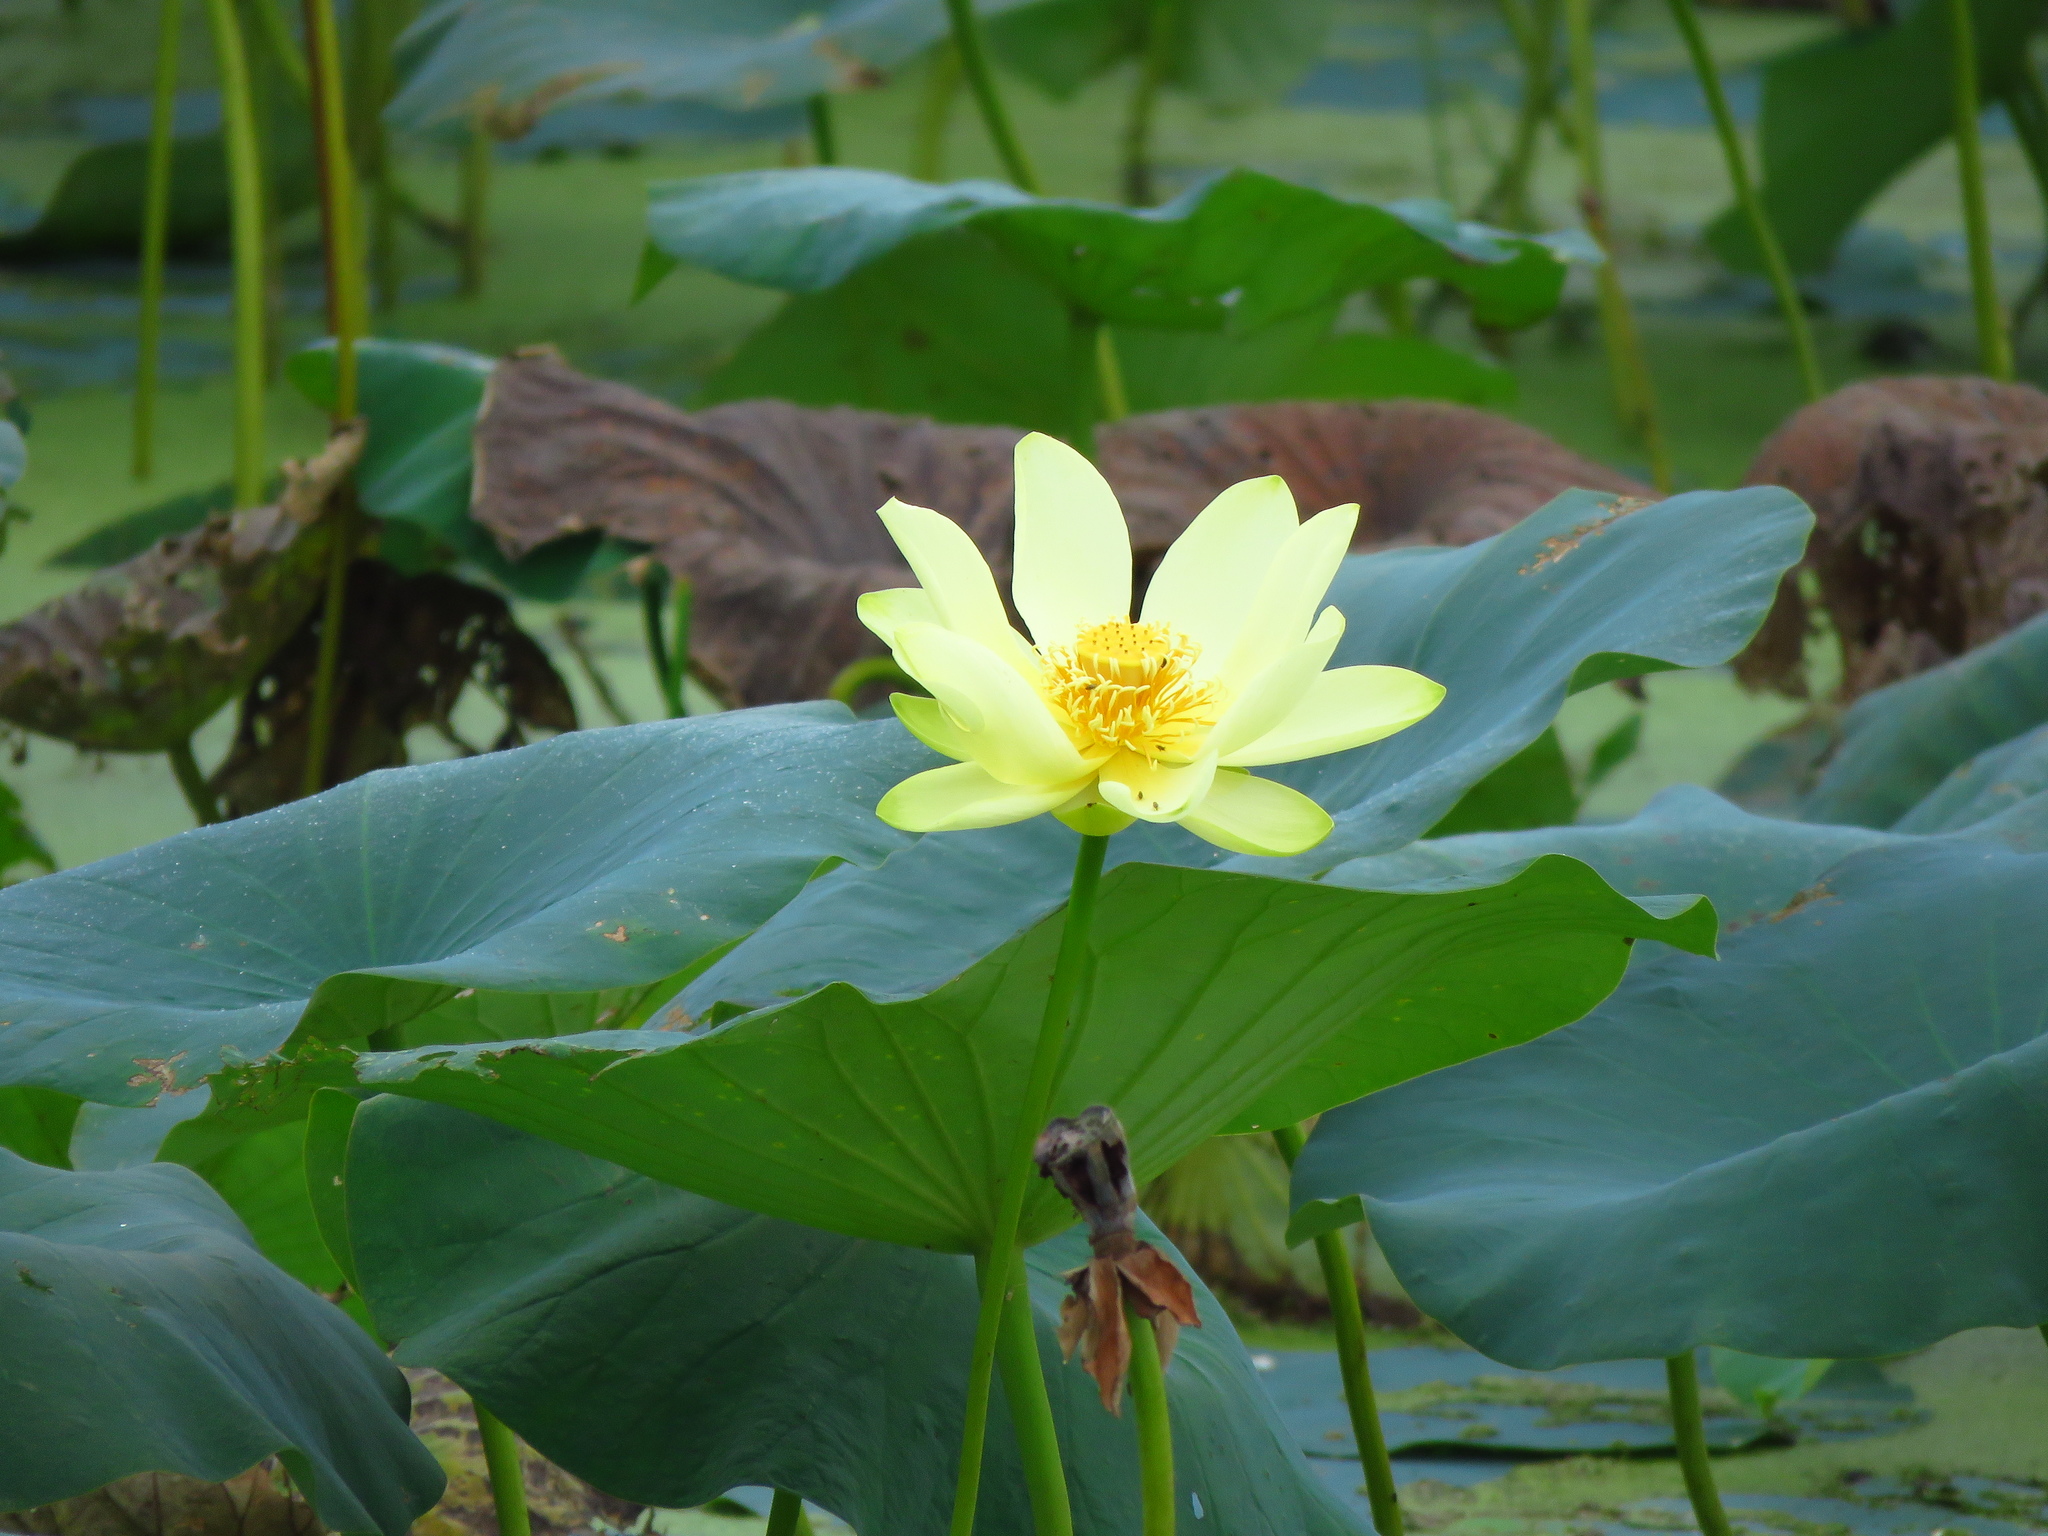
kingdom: Plantae
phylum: Tracheophyta
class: Magnoliopsida
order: Proteales
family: Nelumbonaceae
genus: Nelumbo
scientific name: Nelumbo lutea
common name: American lotus
